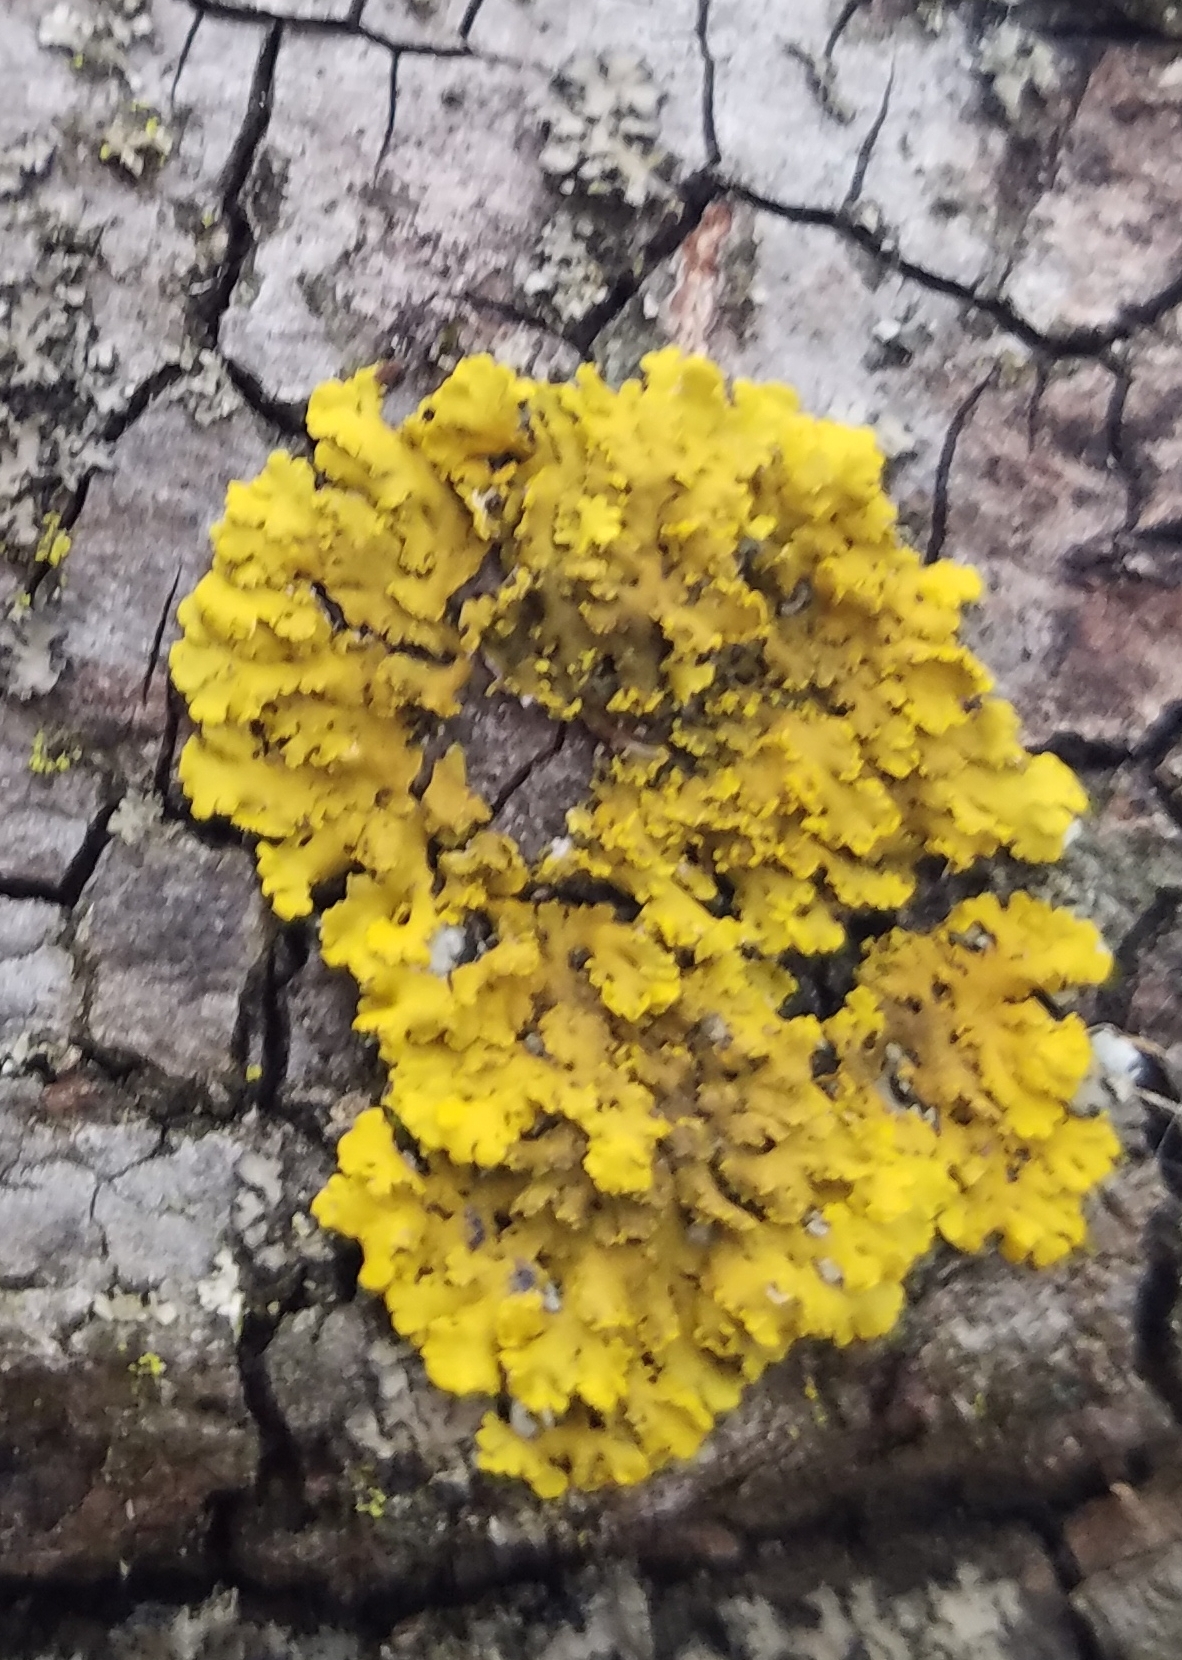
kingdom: Fungi
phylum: Ascomycota
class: Lecanoromycetes
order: Teloschistales
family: Teloschistaceae
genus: Xanthoria
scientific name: Xanthoria ulophyllodes
